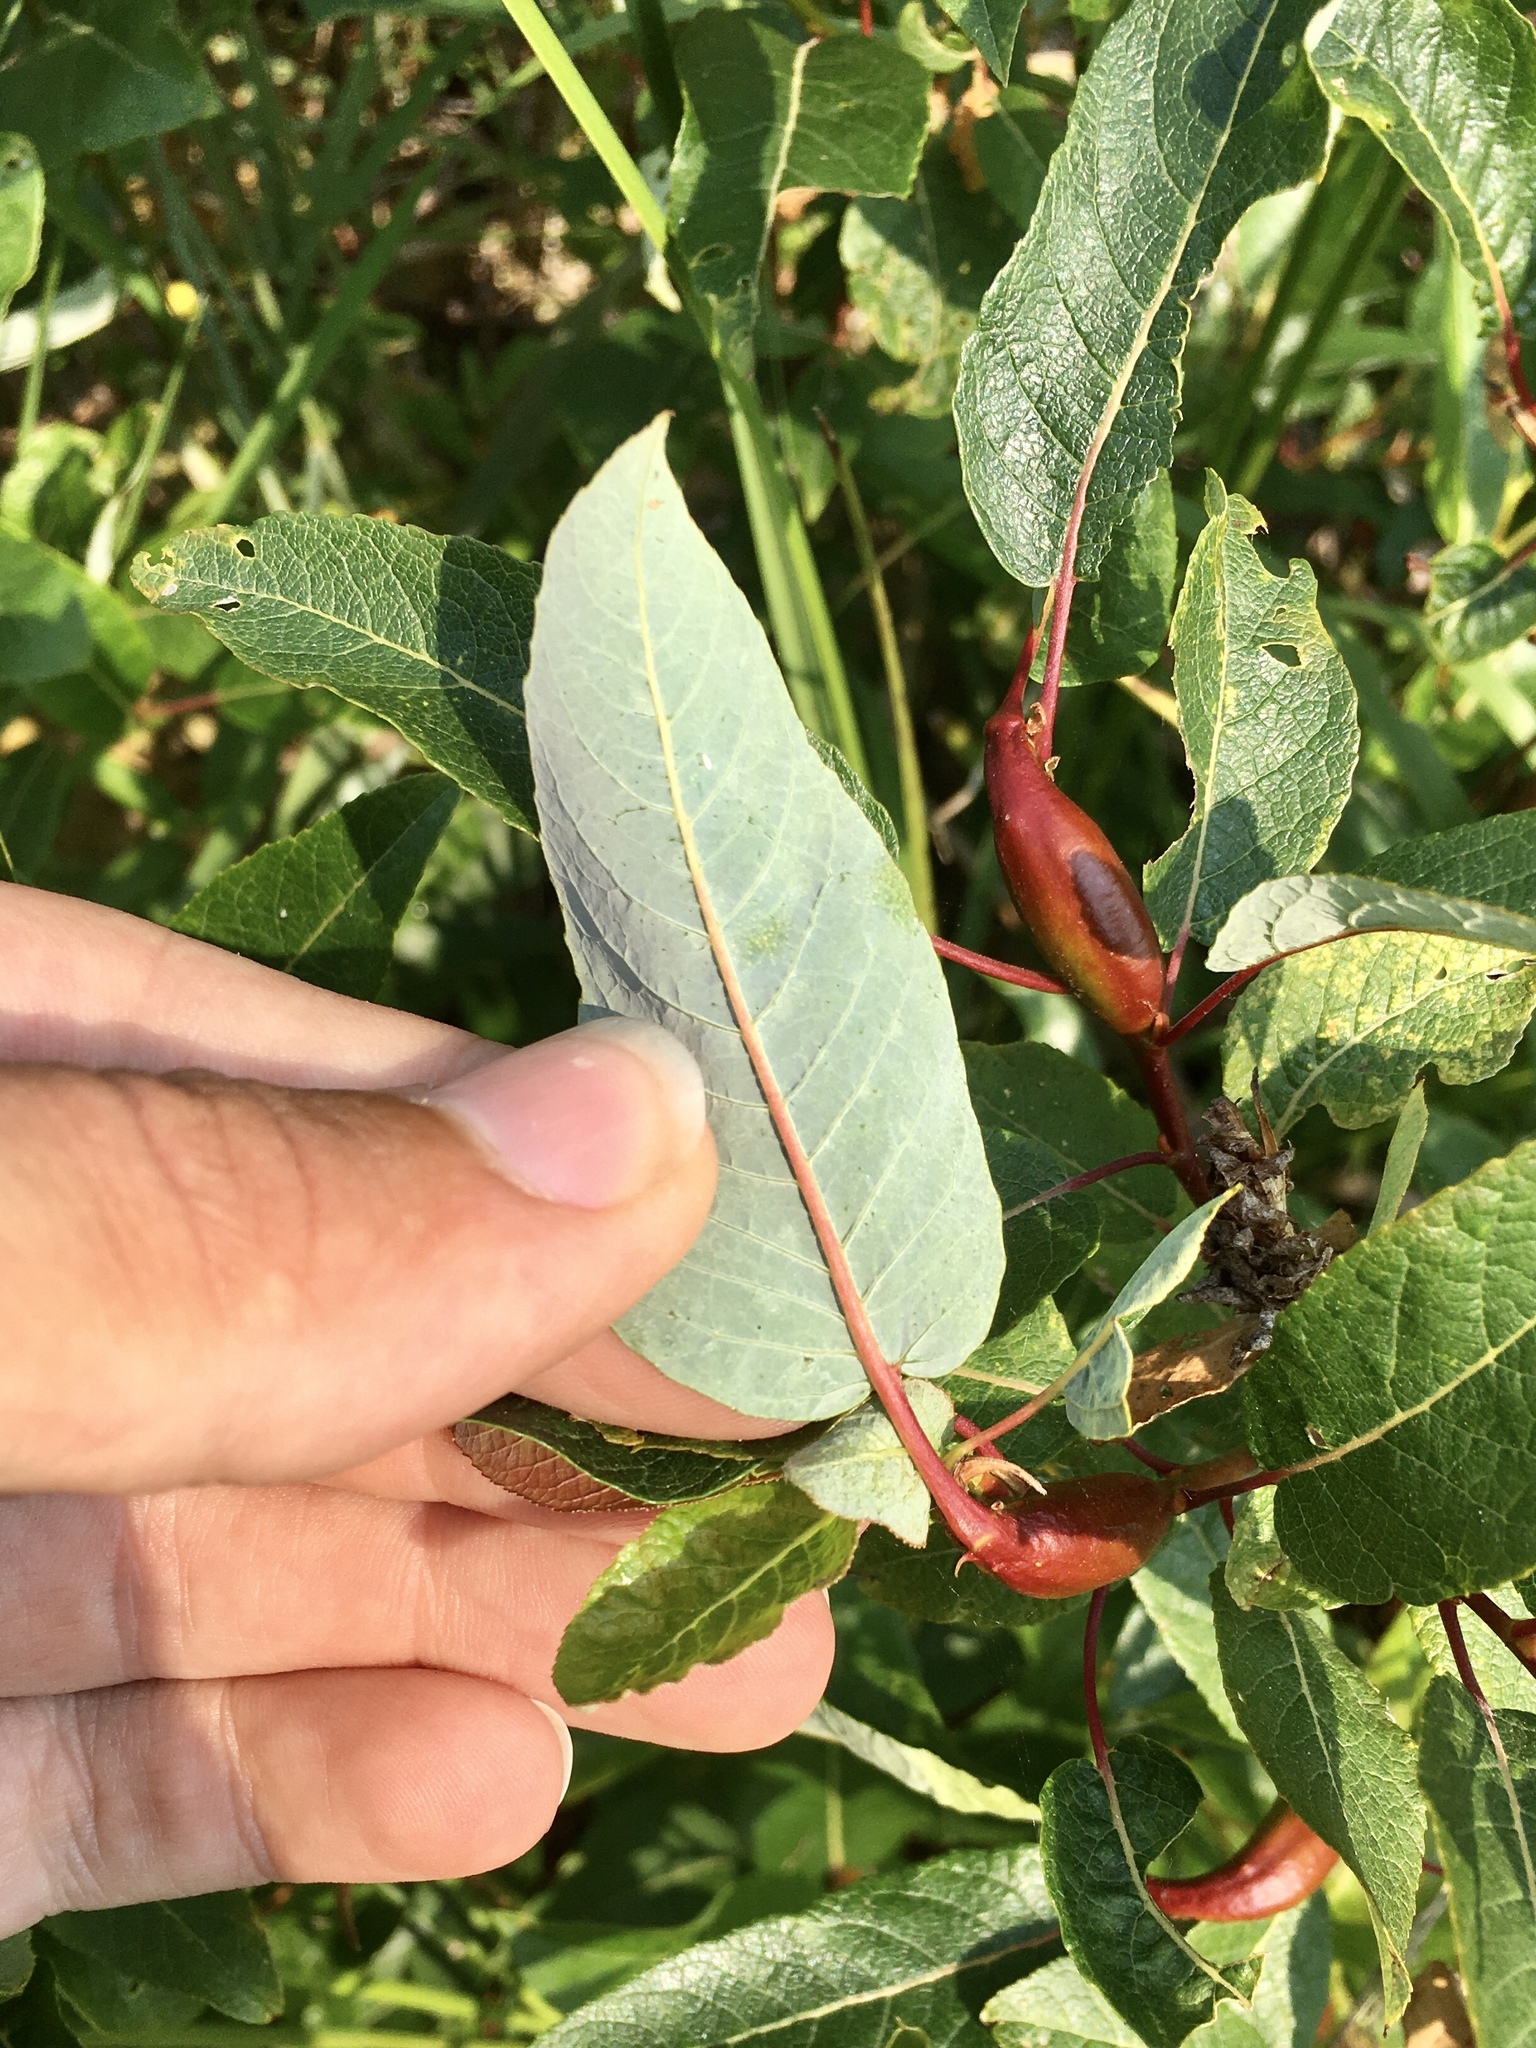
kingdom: Plantae
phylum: Tracheophyta
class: Magnoliopsida
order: Malpighiales
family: Salicaceae
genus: Salix
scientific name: Salix pyrifolia
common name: Balsam willow
